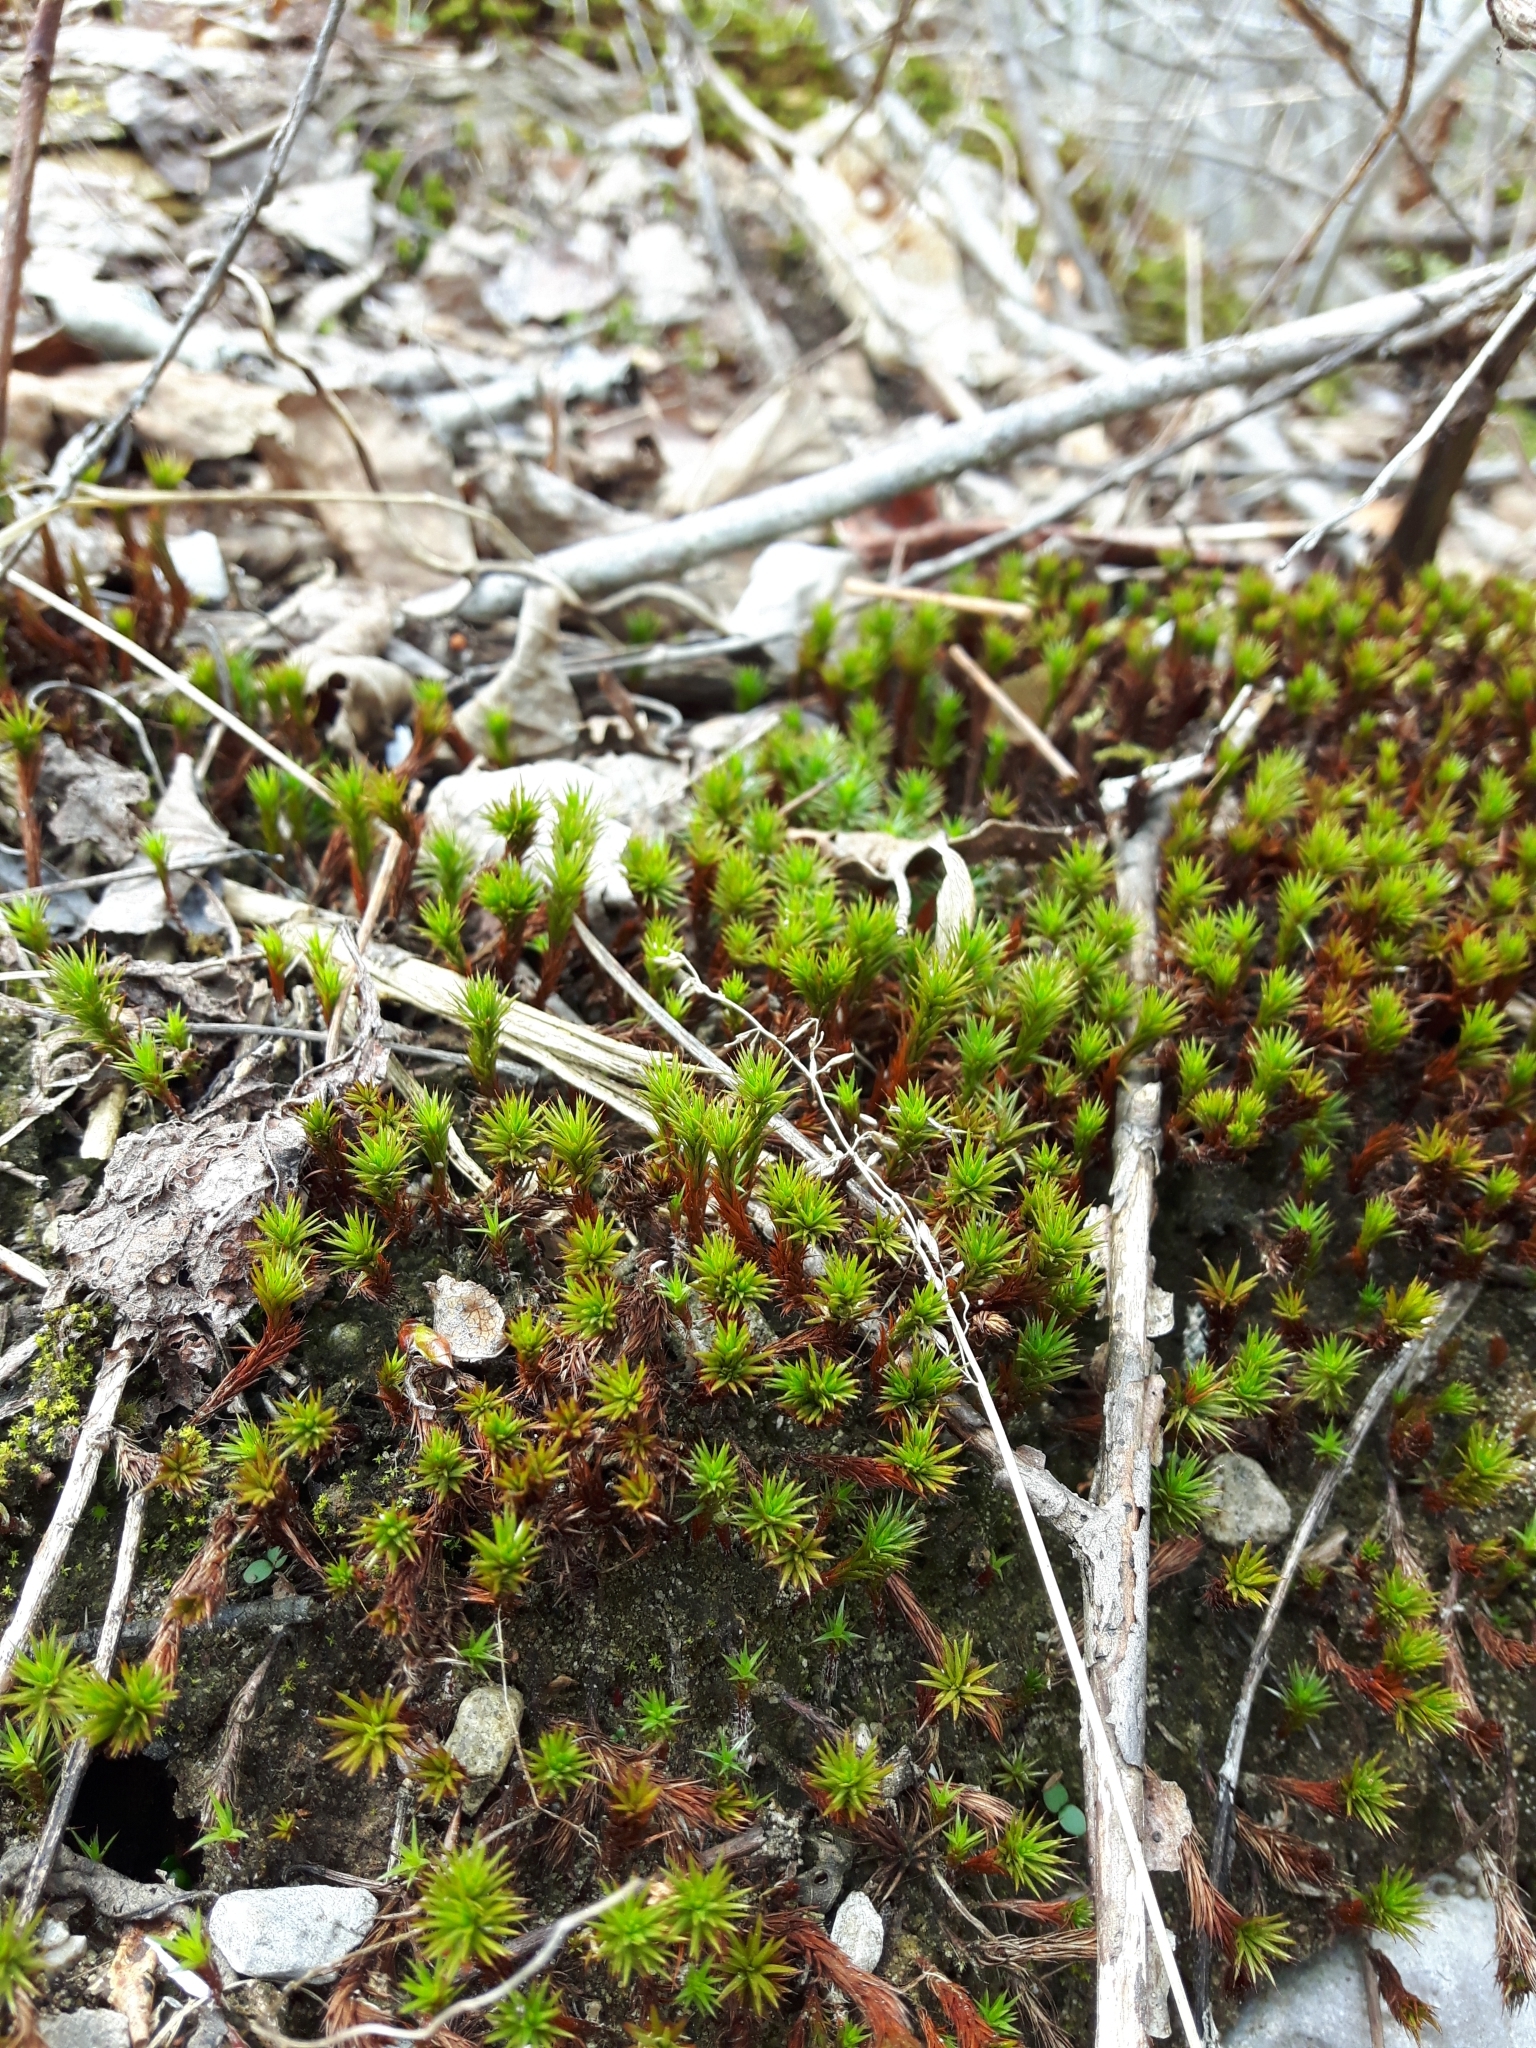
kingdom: Plantae
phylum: Bryophyta
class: Polytrichopsida
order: Polytrichales
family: Polytrichaceae
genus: Polytrichum
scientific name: Polytrichum piliferum
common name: Bristly haircap
